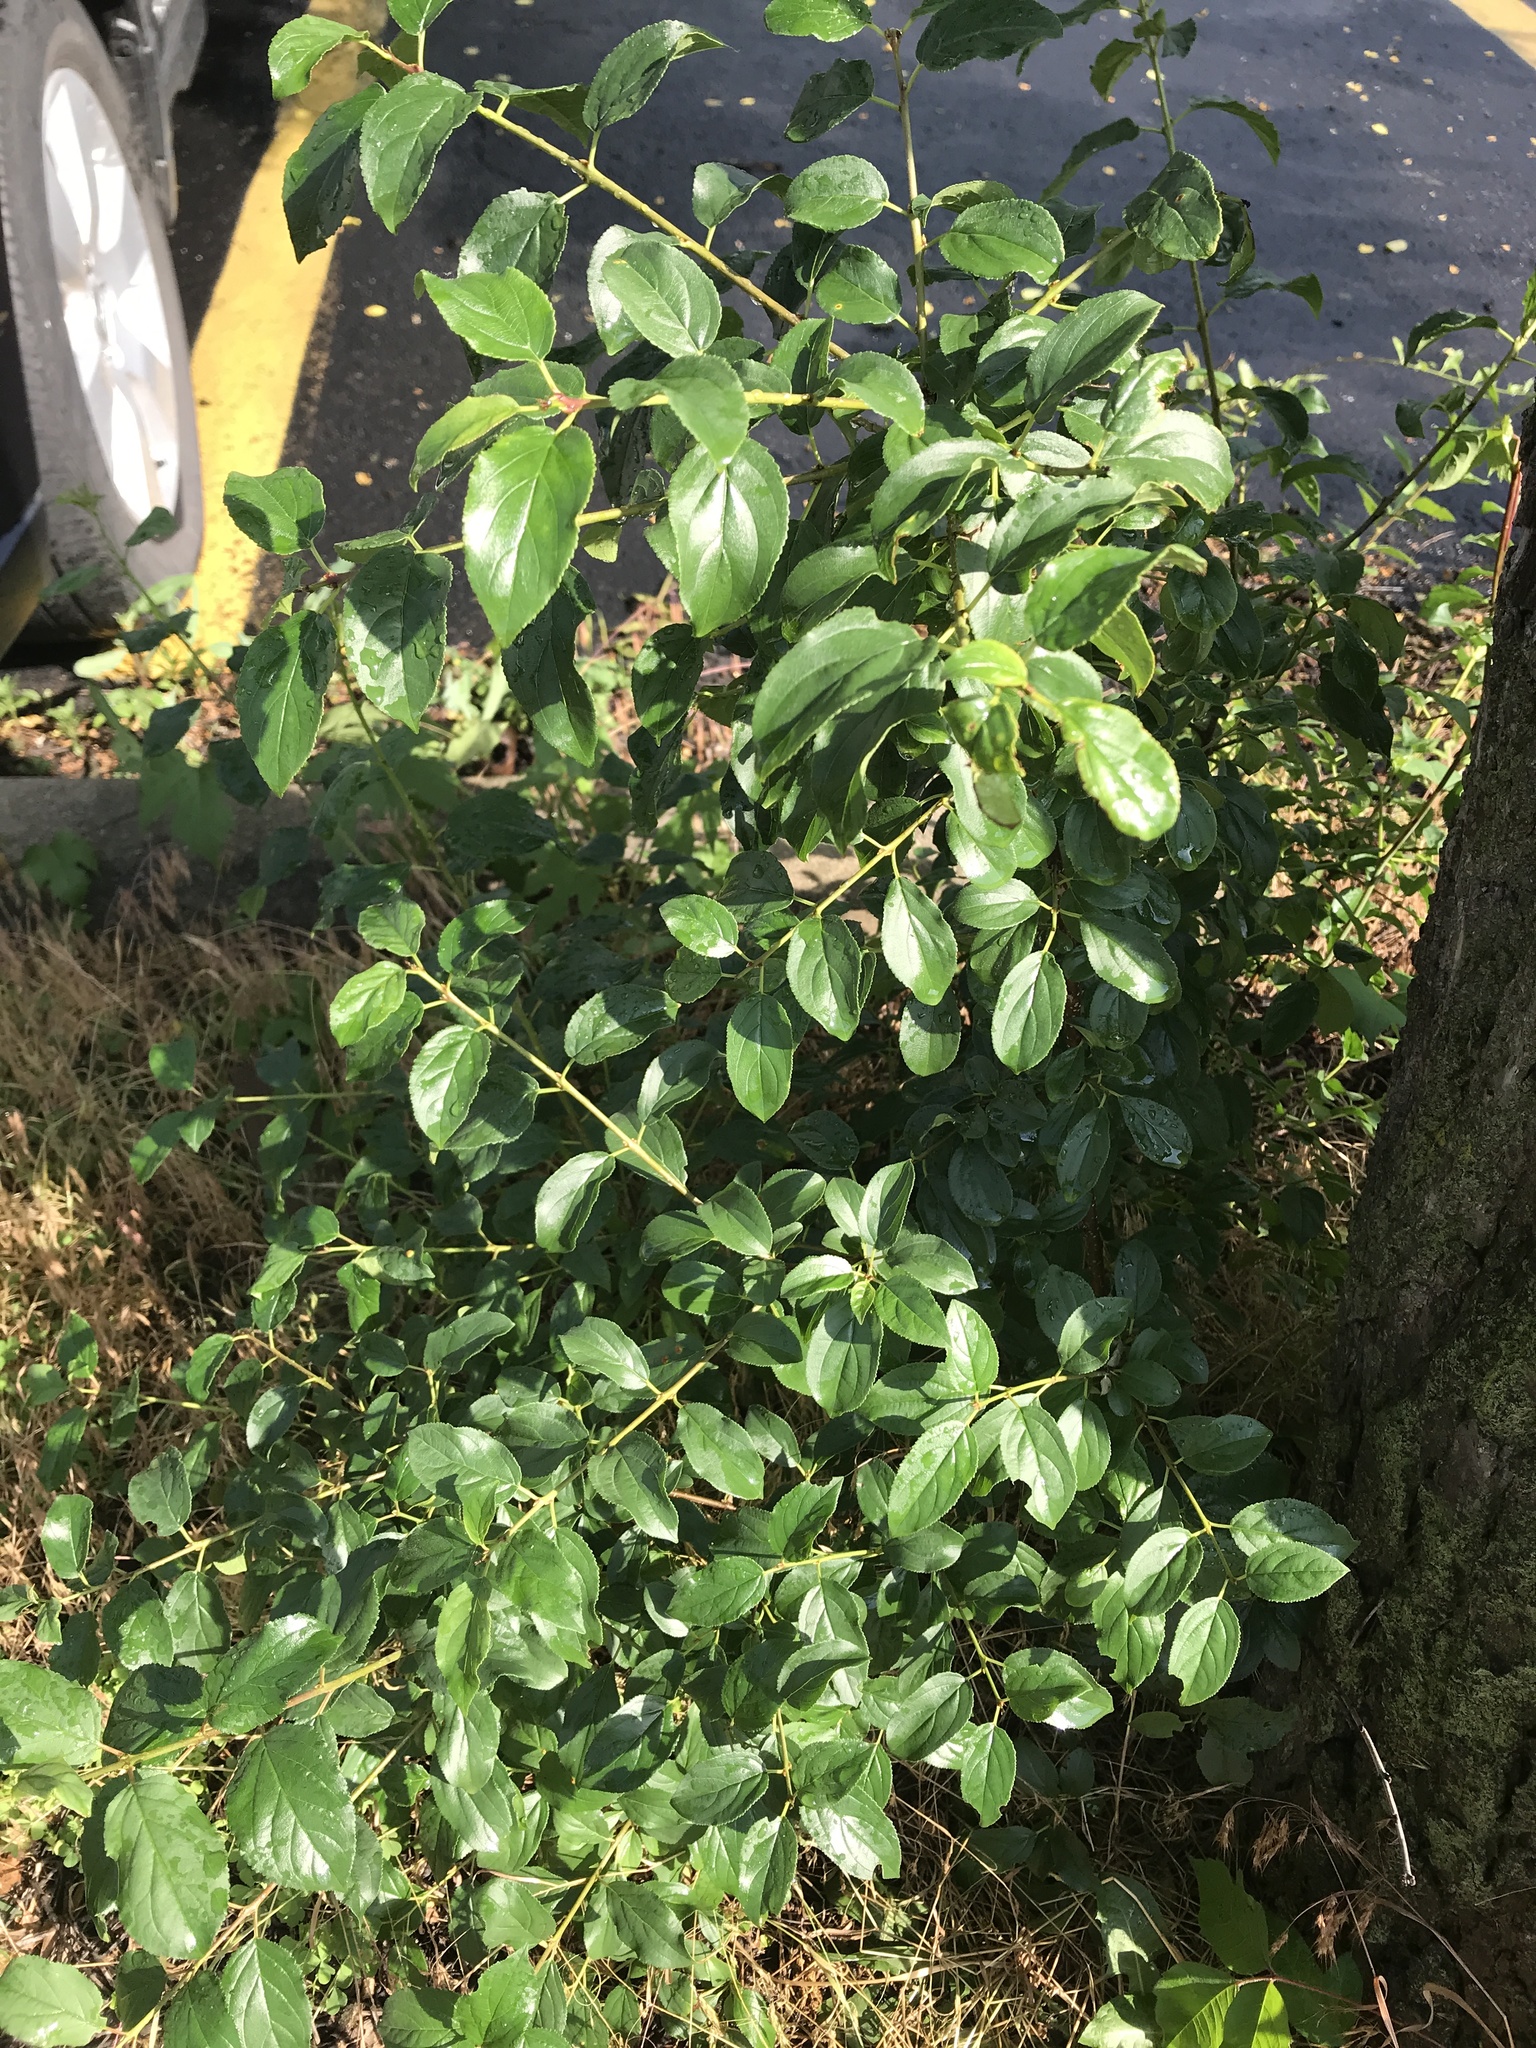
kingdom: Plantae
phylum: Tracheophyta
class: Magnoliopsida
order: Rosales
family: Rhamnaceae
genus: Rhamnus
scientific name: Rhamnus cathartica
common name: Common buckthorn
